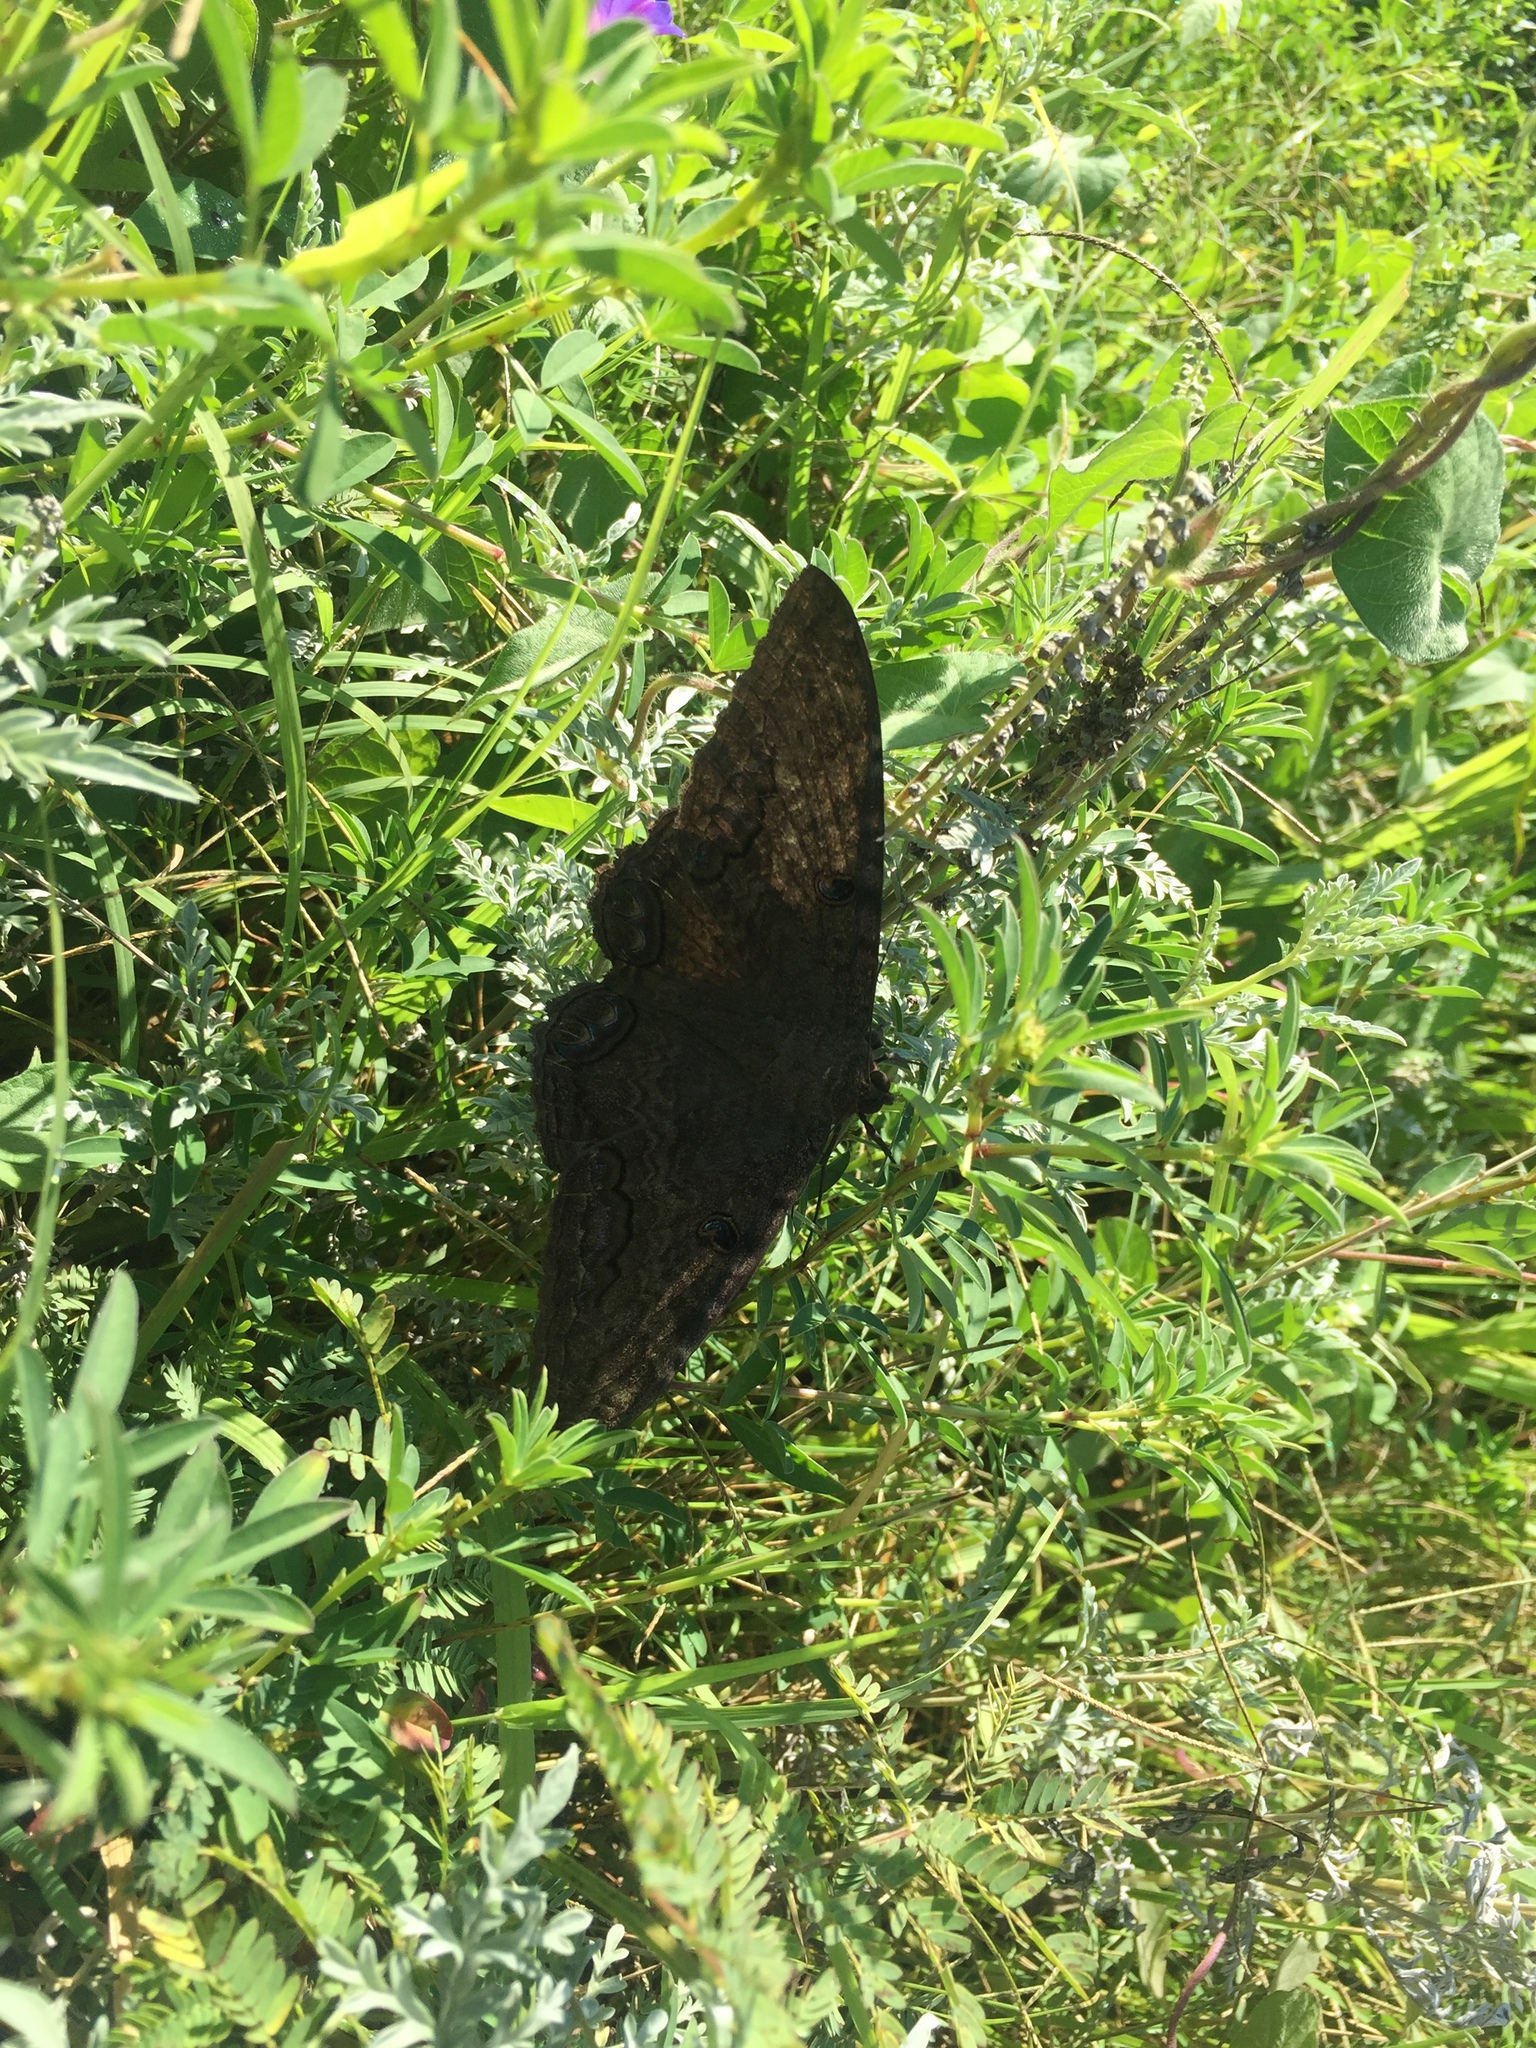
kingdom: Animalia
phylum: Arthropoda
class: Insecta
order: Lepidoptera
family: Erebidae
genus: Ascalapha
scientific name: Ascalapha odorata
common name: Black witch
